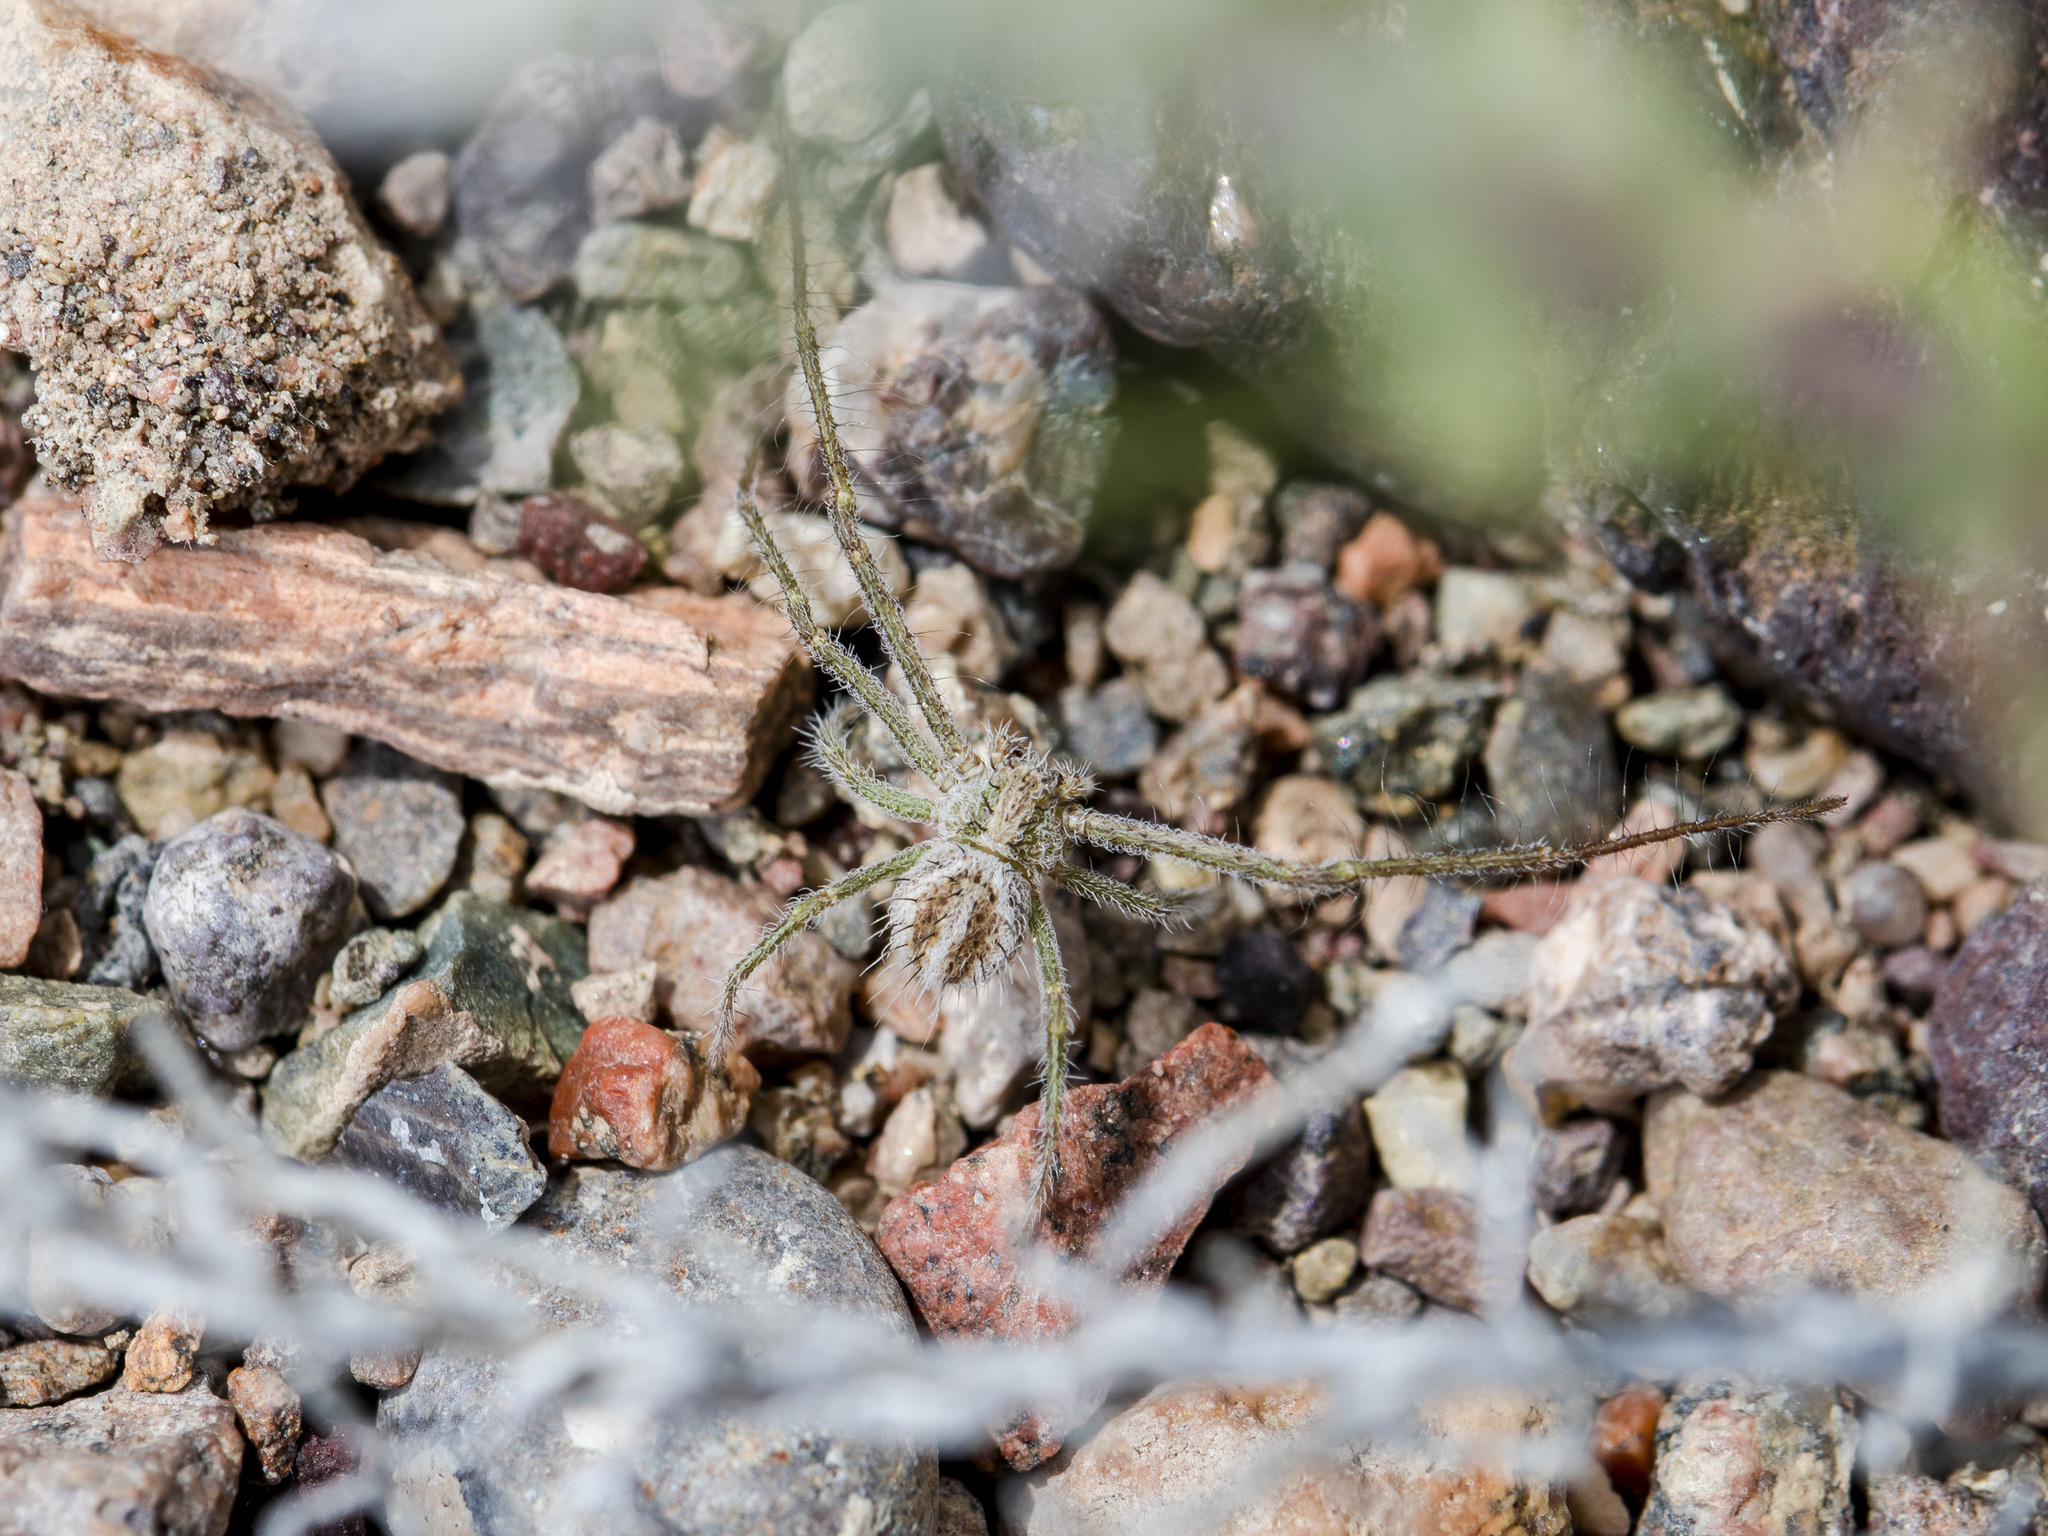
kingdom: Animalia
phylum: Arthropoda
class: Arachnida
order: Araneae
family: Thomisidae
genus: Heriaeus
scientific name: Heriaeus horridus
